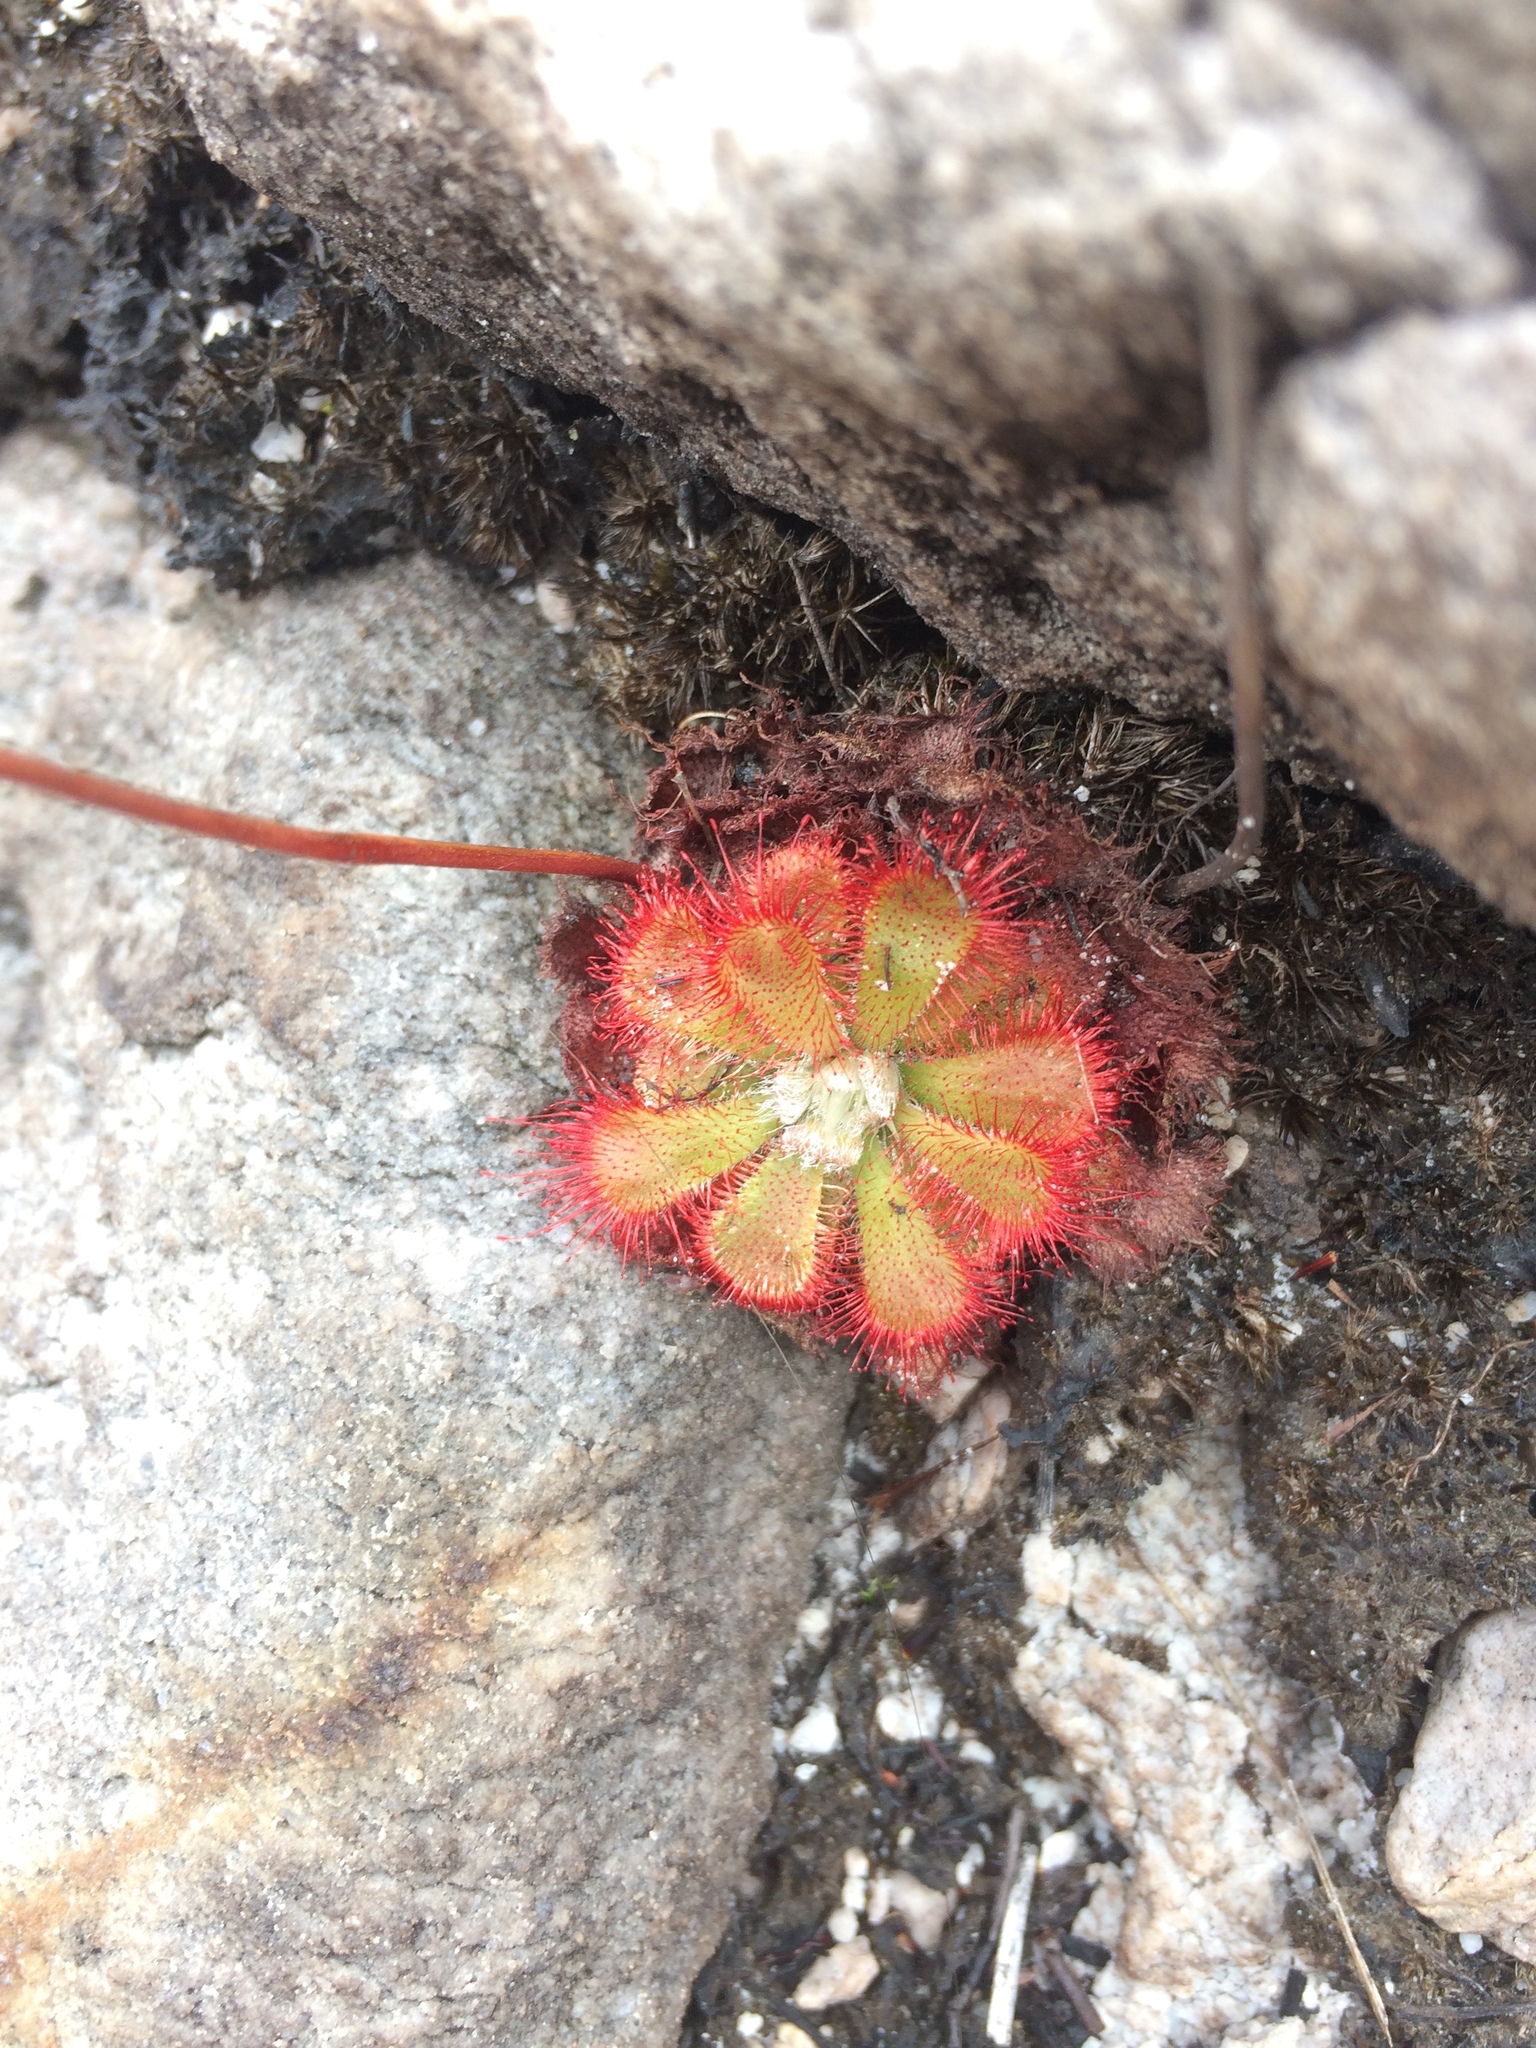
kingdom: Plantae
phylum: Tracheophyta
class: Magnoliopsida
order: Caryophyllales
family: Droseraceae
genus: Drosera
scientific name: Drosera aliciae
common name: Alice sundew
